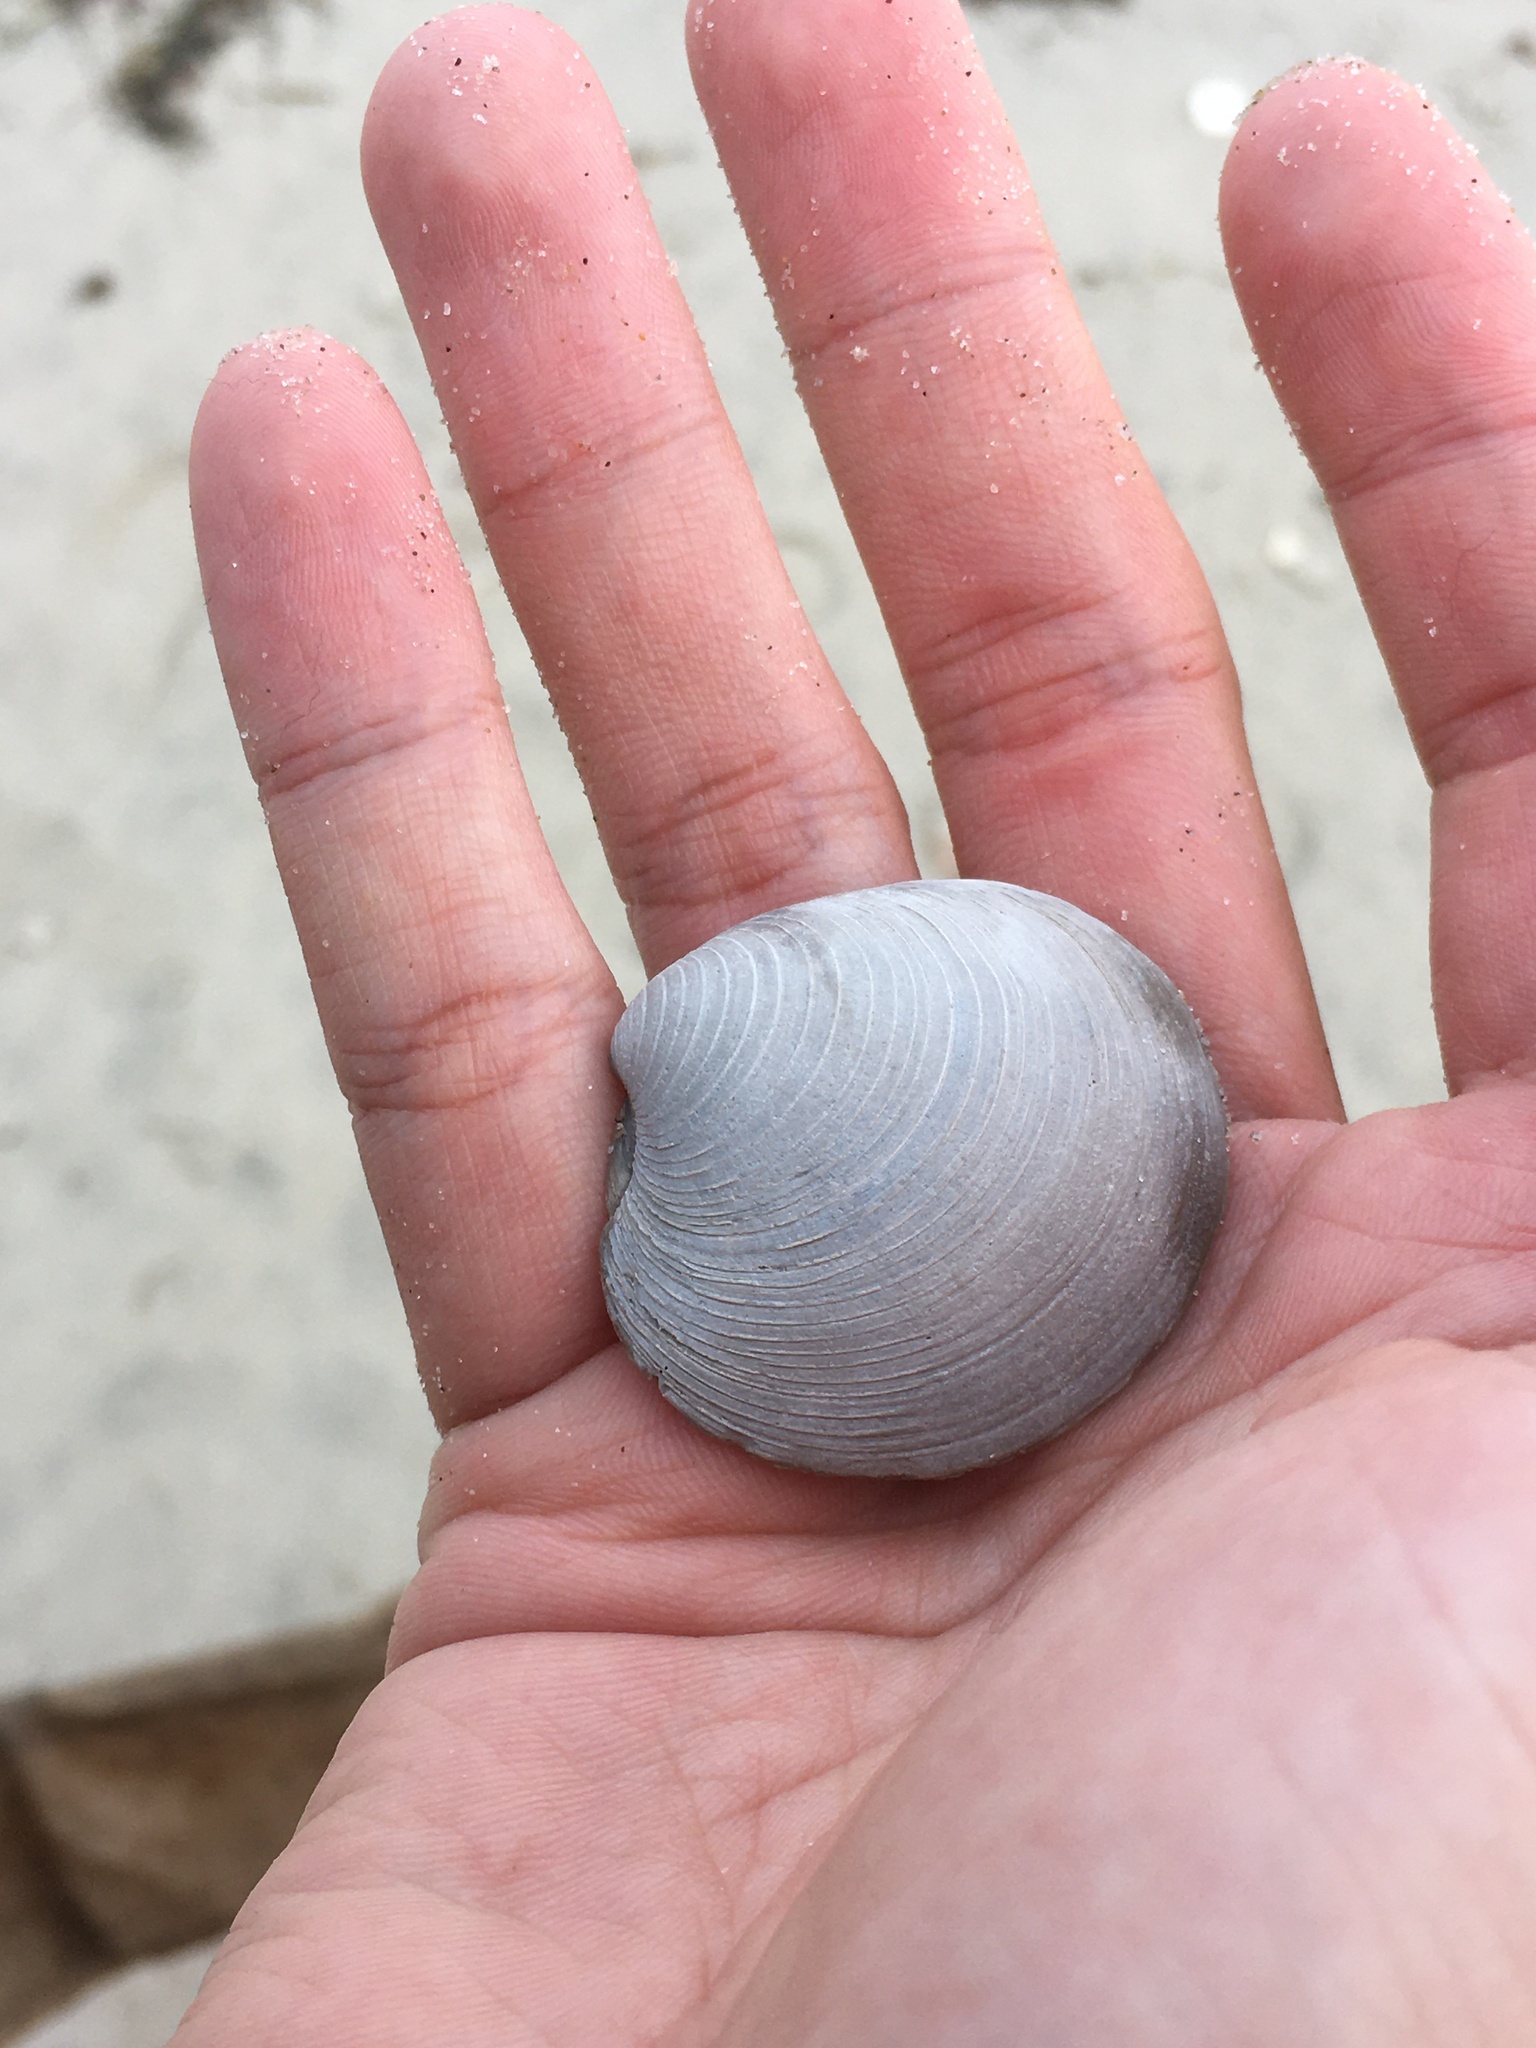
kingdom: Animalia
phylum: Mollusca
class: Bivalvia
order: Venerida
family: Veneridae
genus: Mercenaria
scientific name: Mercenaria
